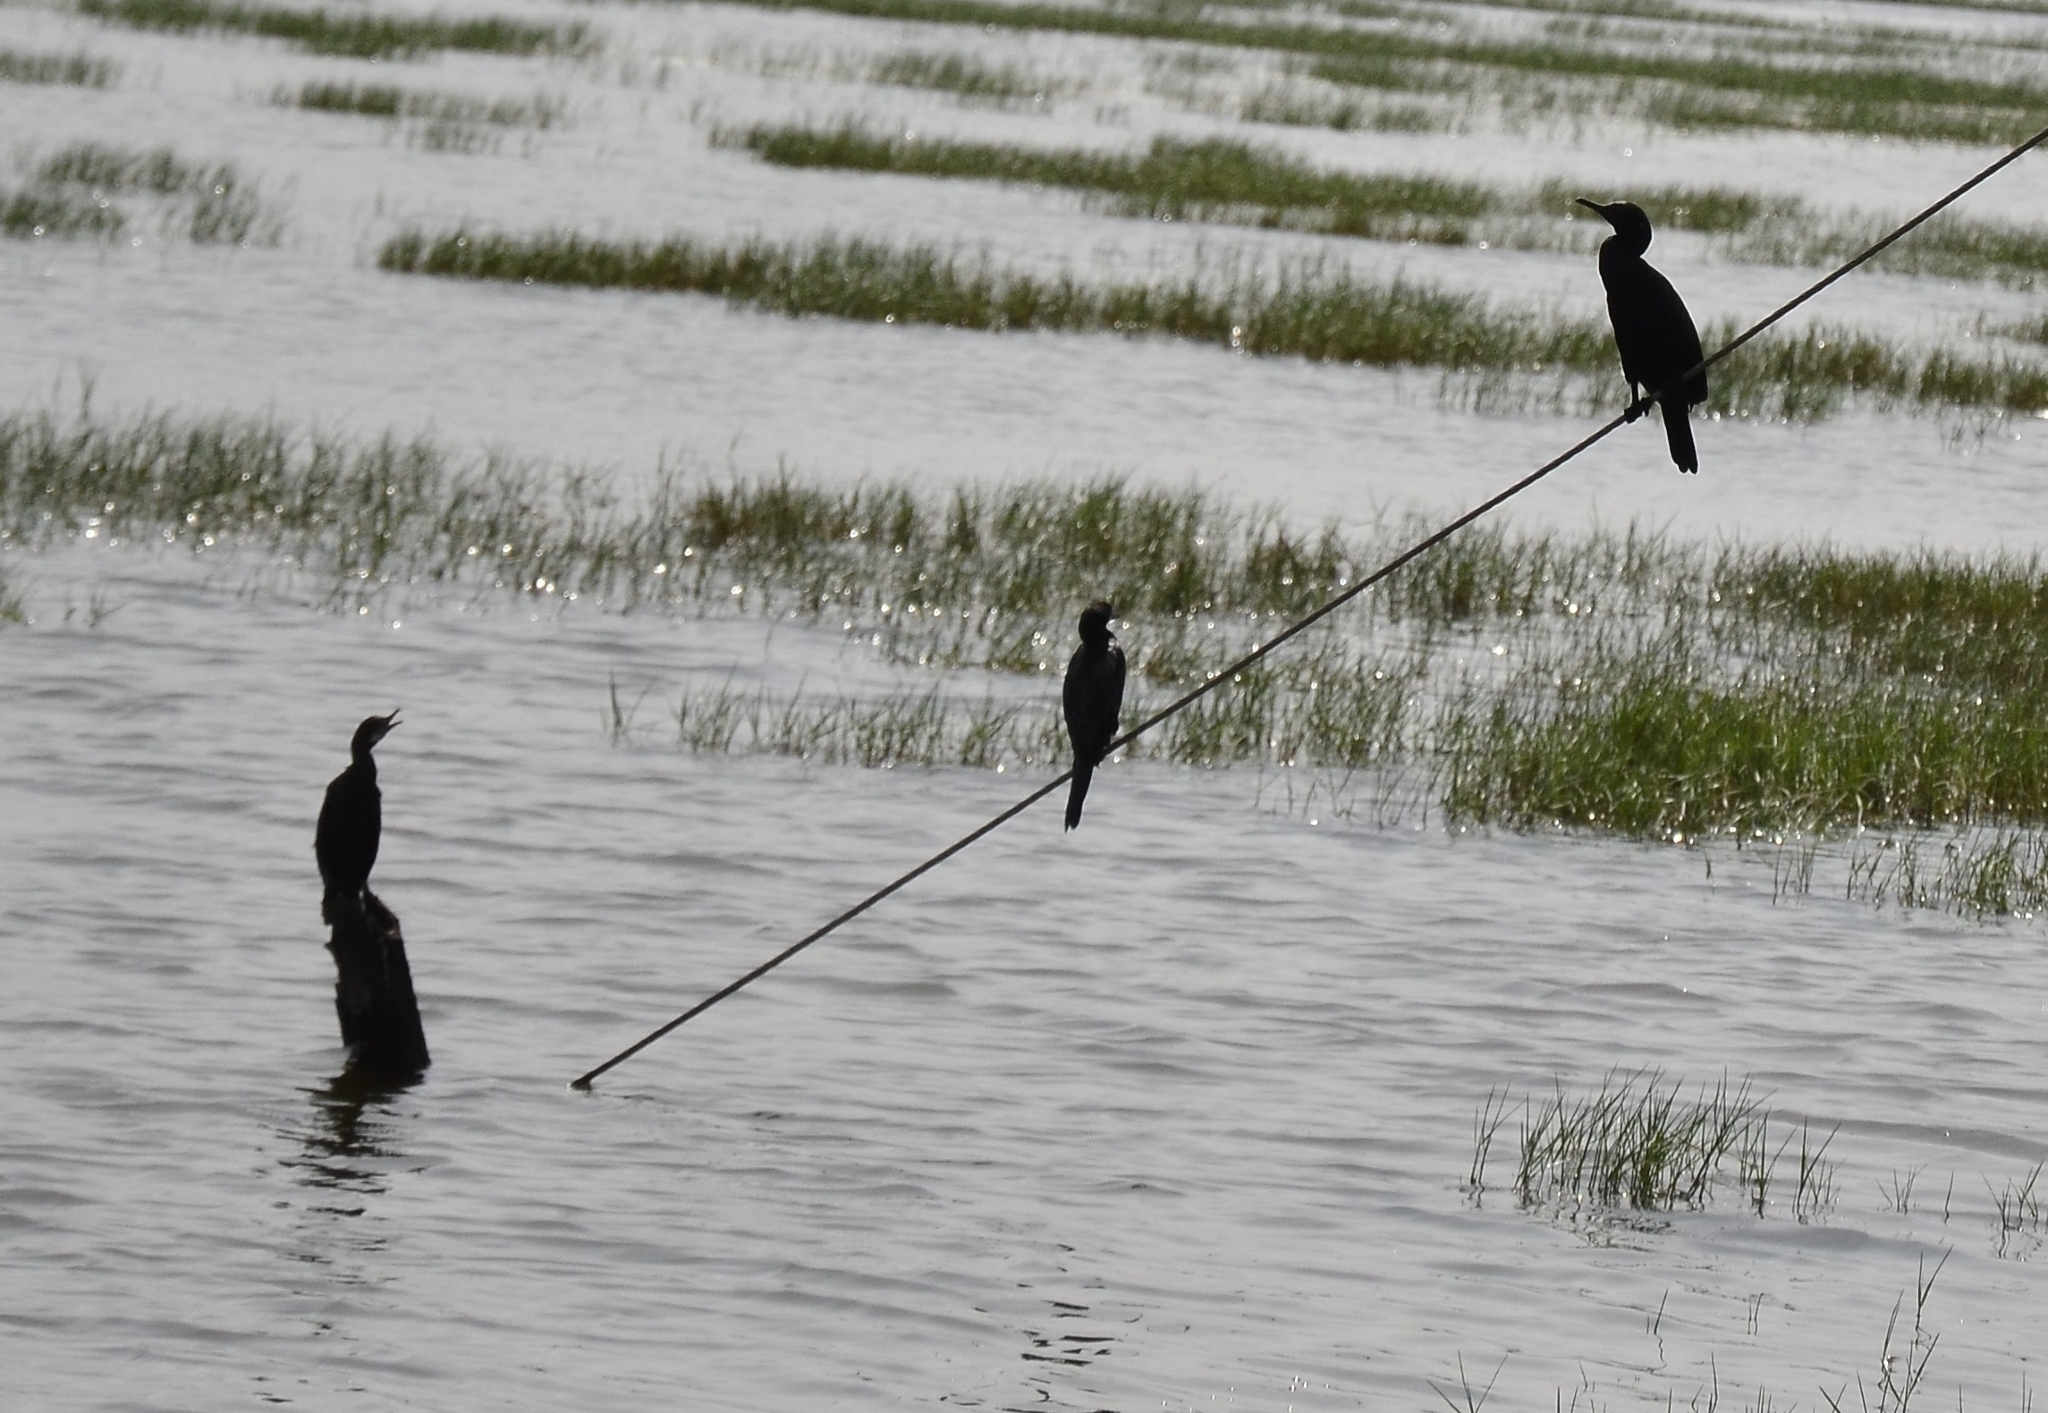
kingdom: Animalia
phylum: Chordata
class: Aves
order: Suliformes
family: Phalacrocoracidae
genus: Microcarbo
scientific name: Microcarbo niger
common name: Little cormorant
